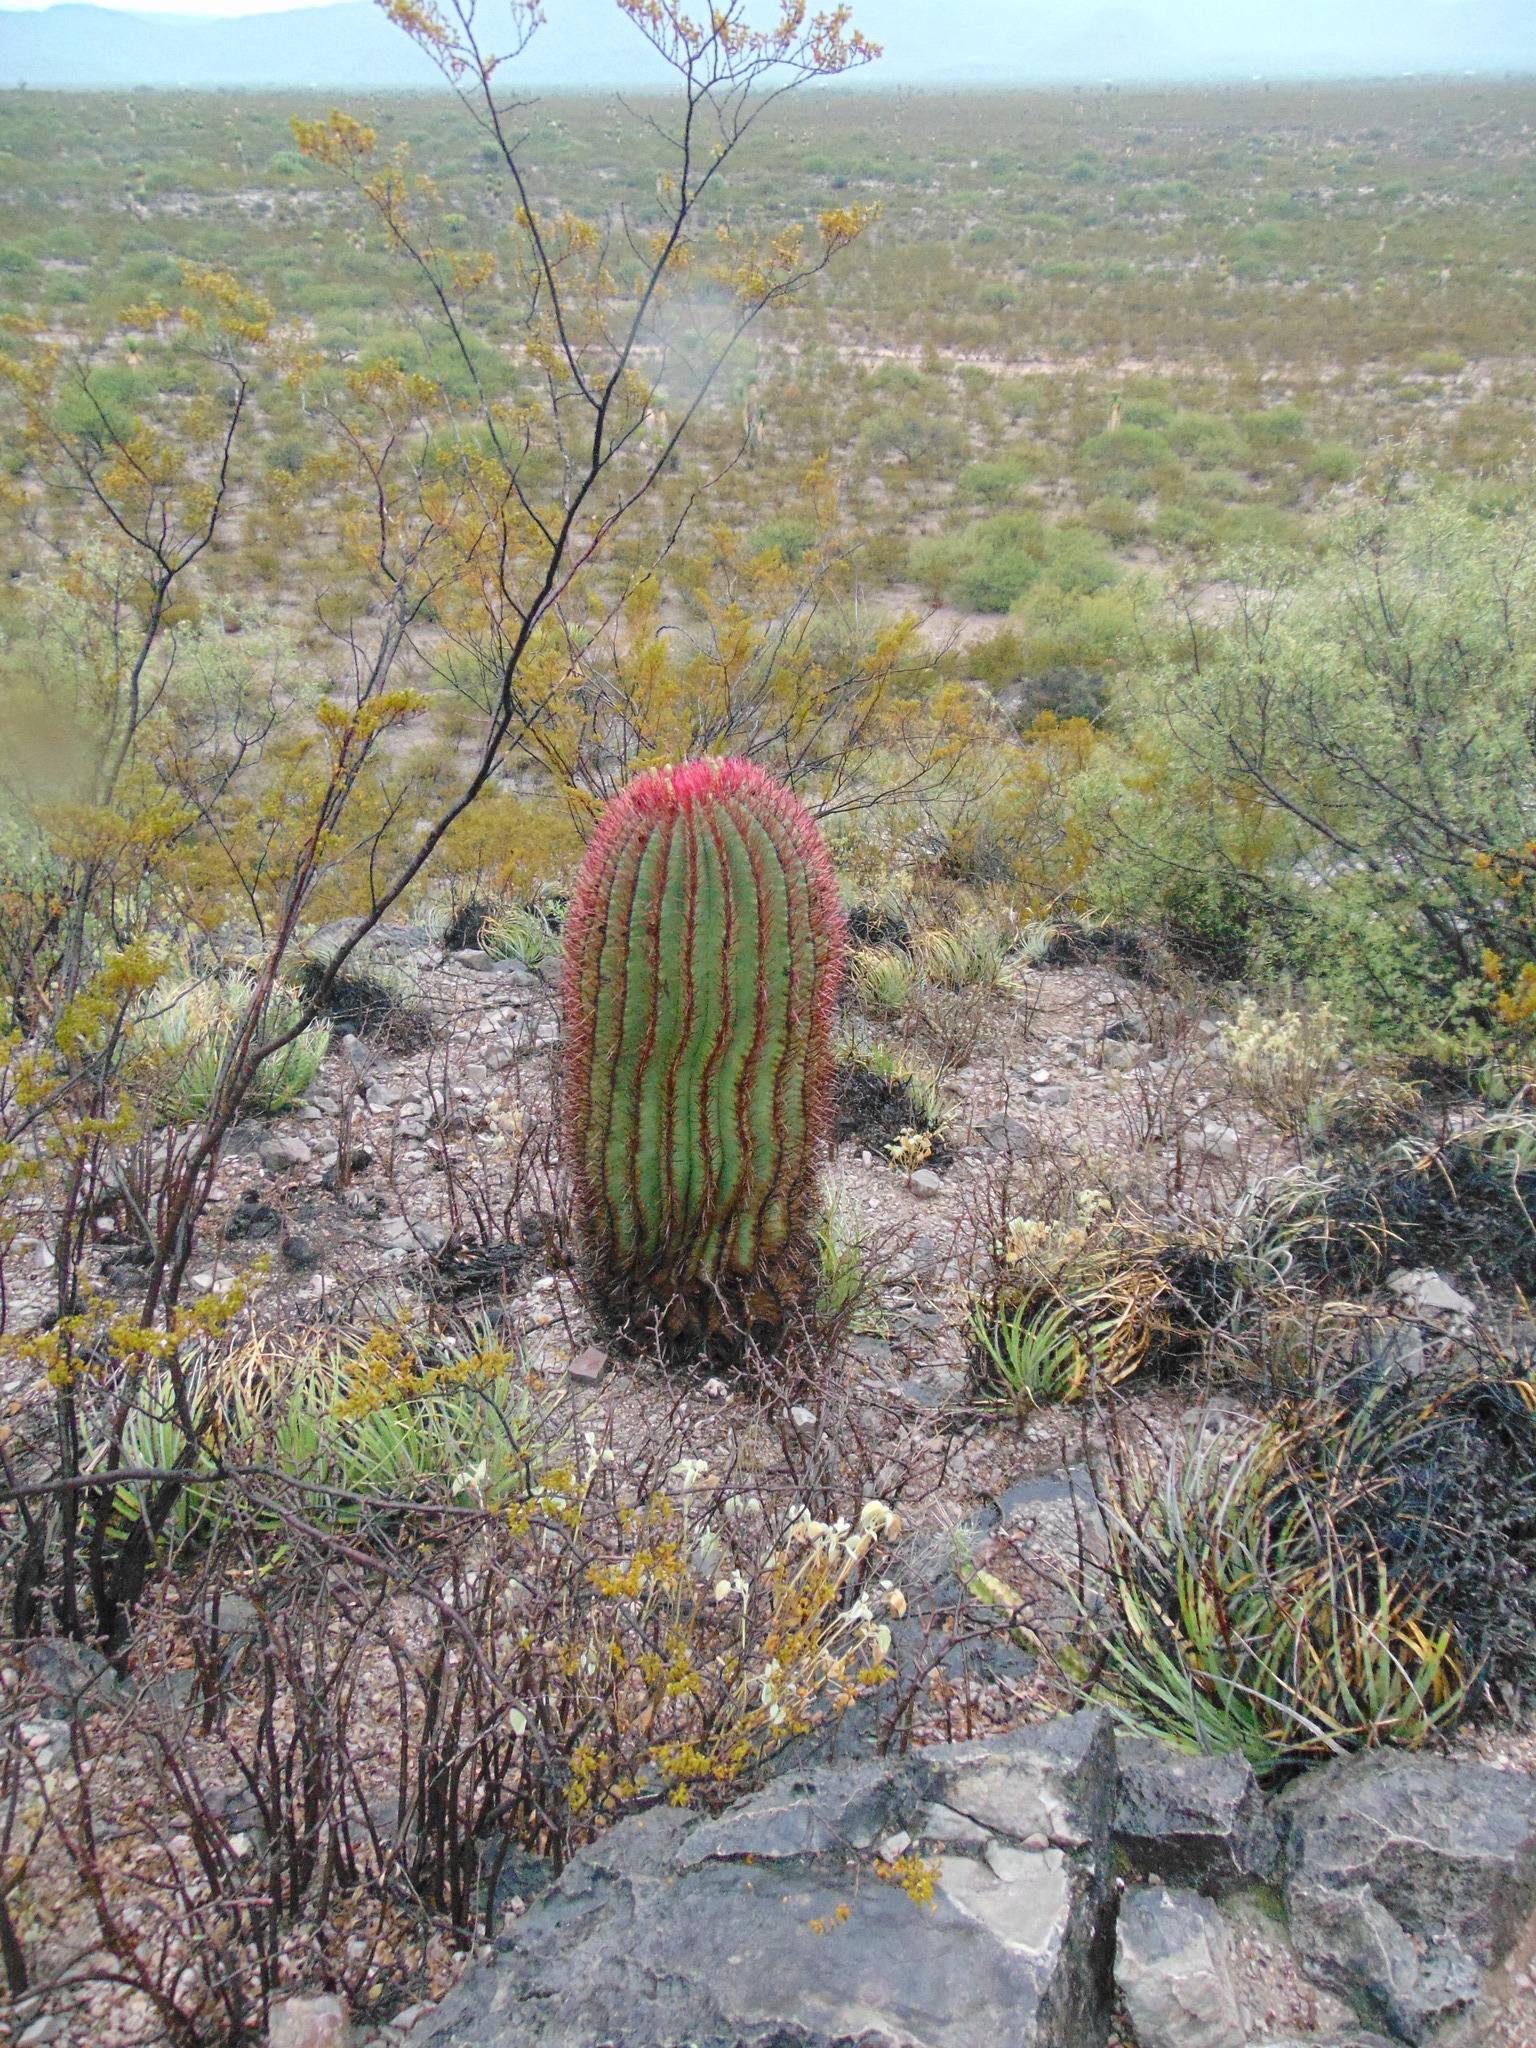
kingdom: Plantae
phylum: Tracheophyta
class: Magnoliopsida
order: Caryophyllales
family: Cactaceae
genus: Ferocactus
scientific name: Ferocactus pilosus
